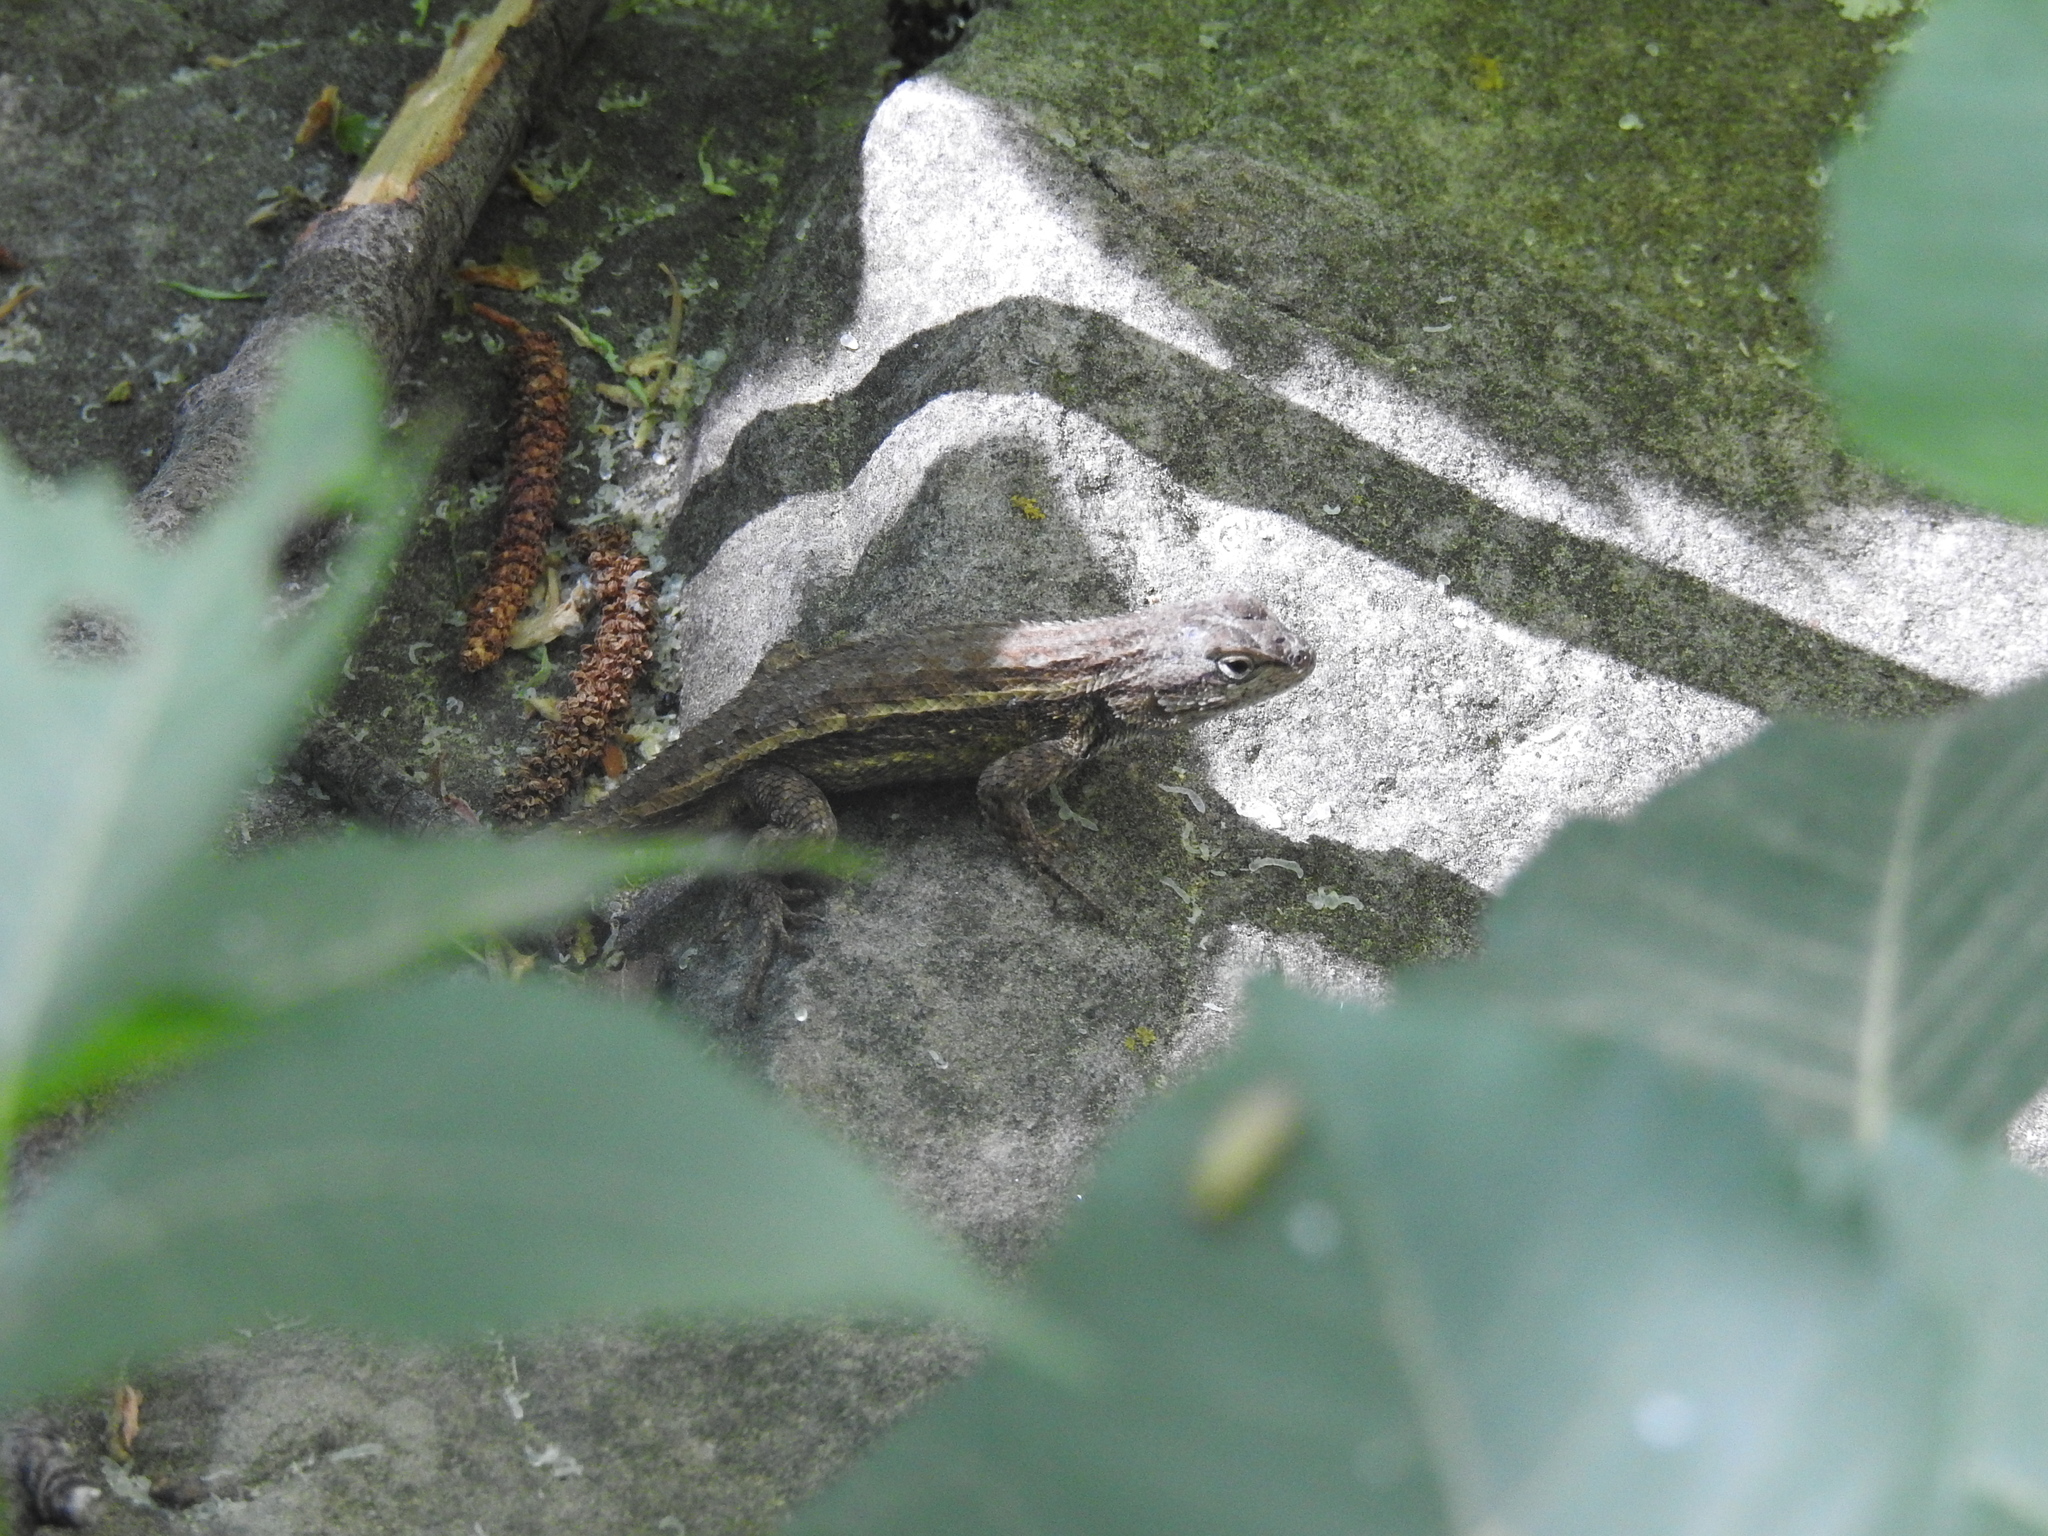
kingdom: Animalia
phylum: Chordata
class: Squamata
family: Phrynosomatidae
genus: Sceloporus
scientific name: Sceloporus tristichus
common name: Plateau fence lizard
